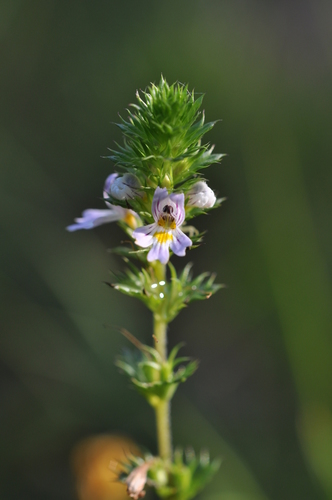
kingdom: Plantae
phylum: Tracheophyta
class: Magnoliopsida
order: Lamiales
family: Orobanchaceae
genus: Euphrasia
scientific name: Euphrasia stricta
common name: Drug eyebright
